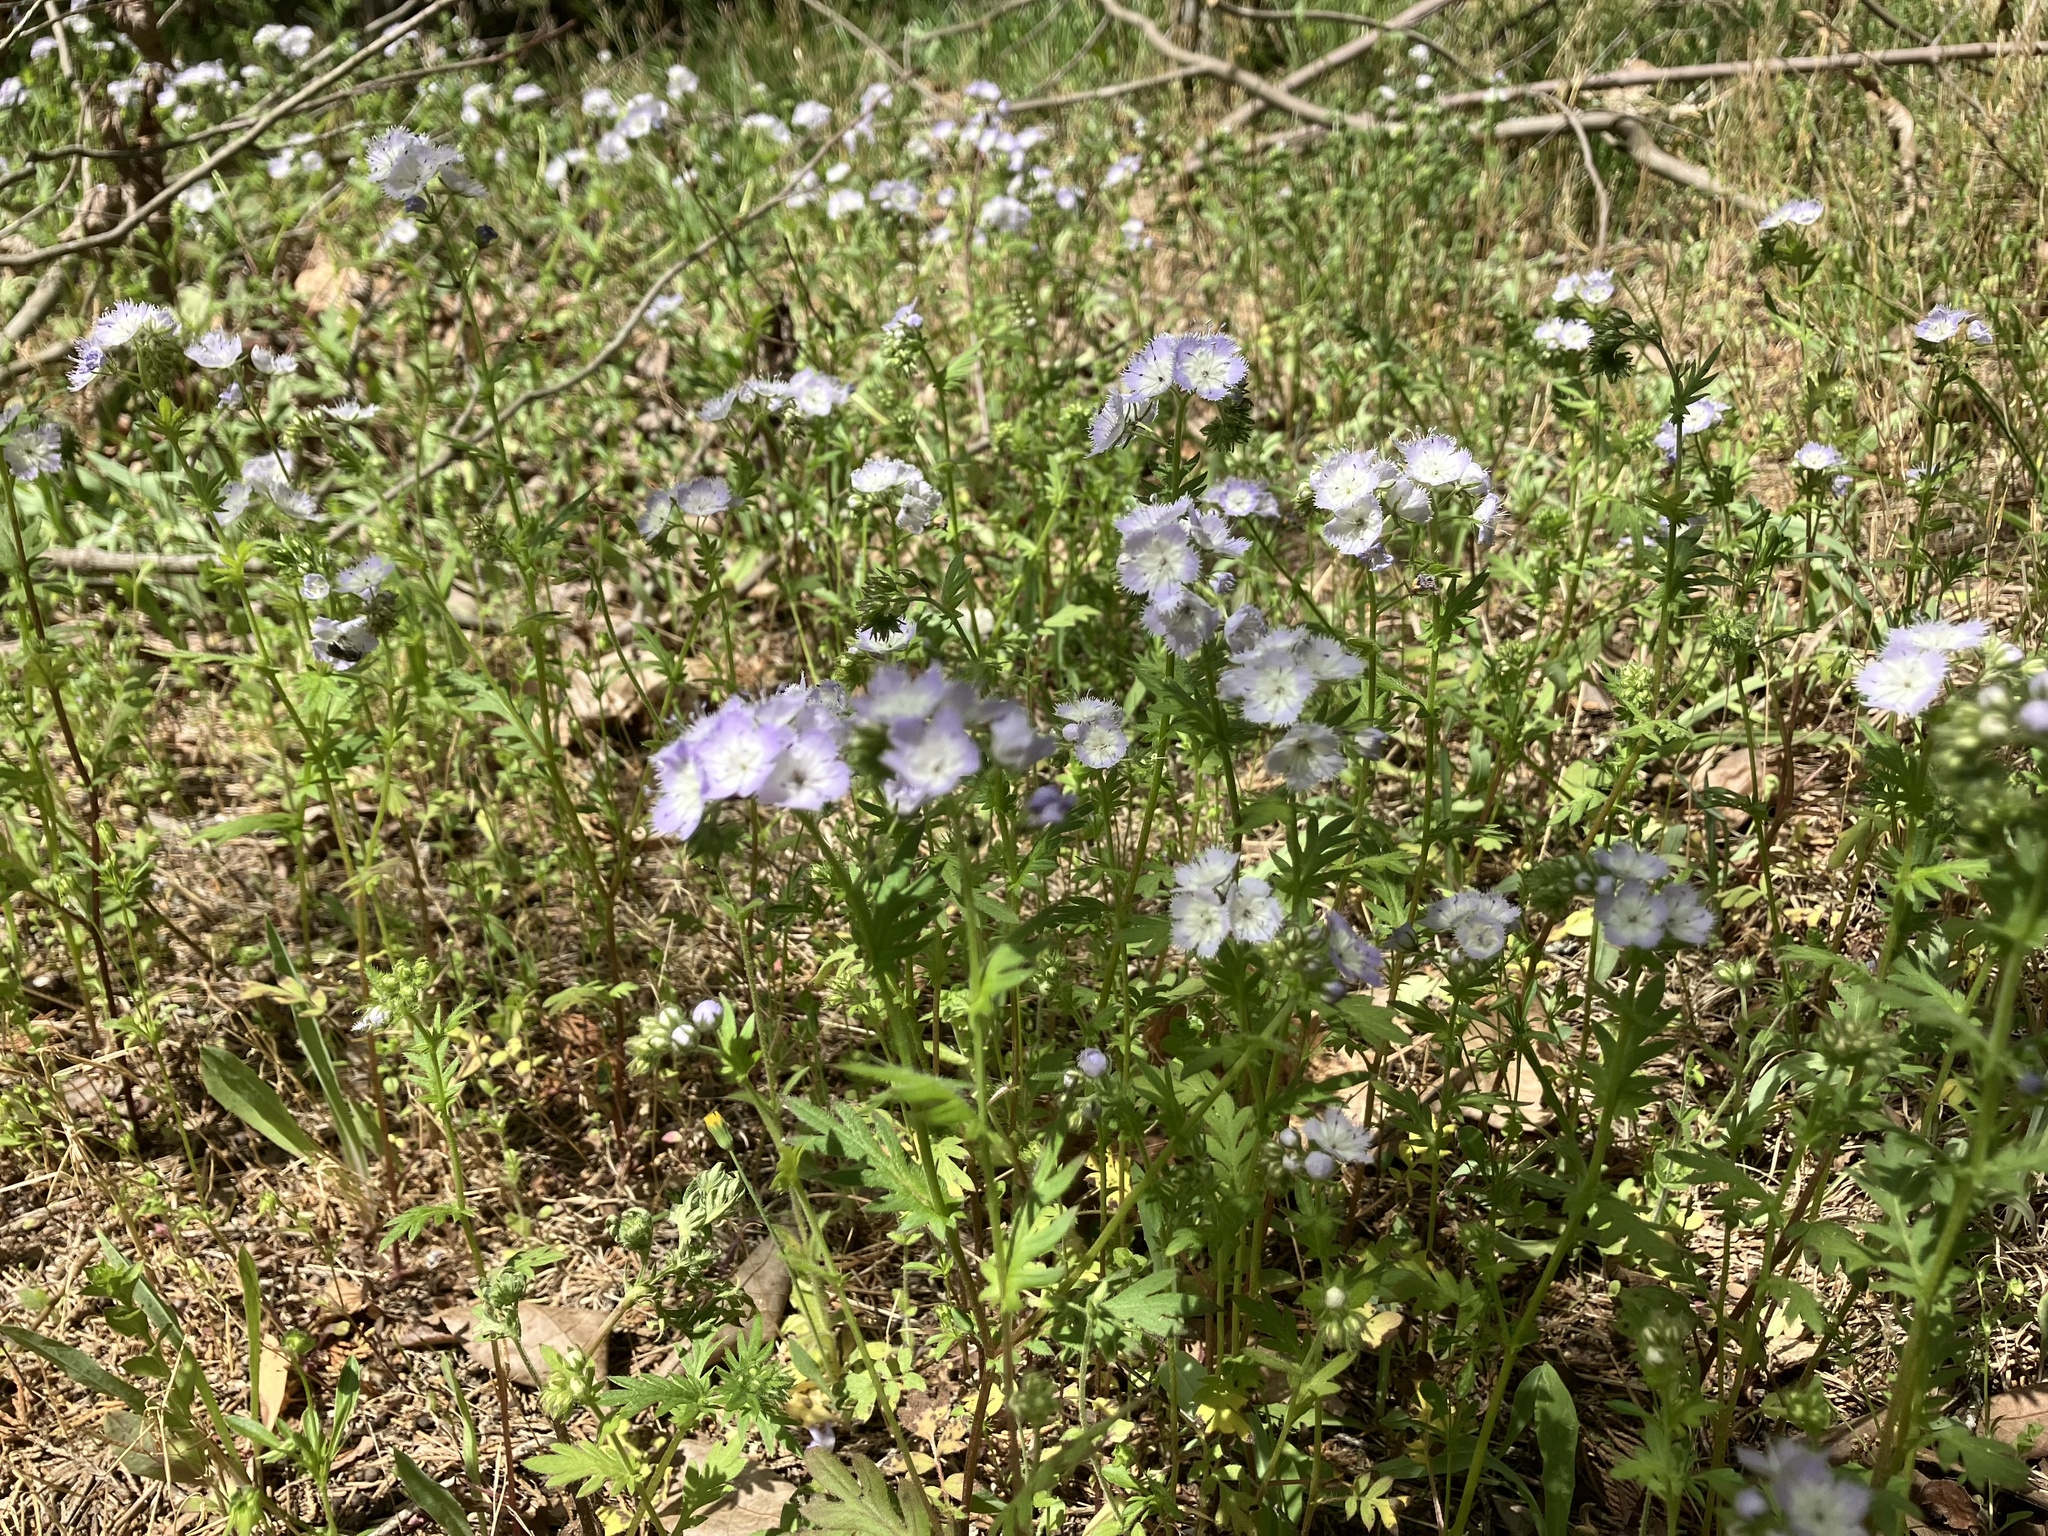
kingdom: Plantae
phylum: Tracheophyta
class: Magnoliopsida
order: Boraginales
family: Hydrophyllaceae
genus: Phacelia
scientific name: Phacelia purshii
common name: Miami-mist
